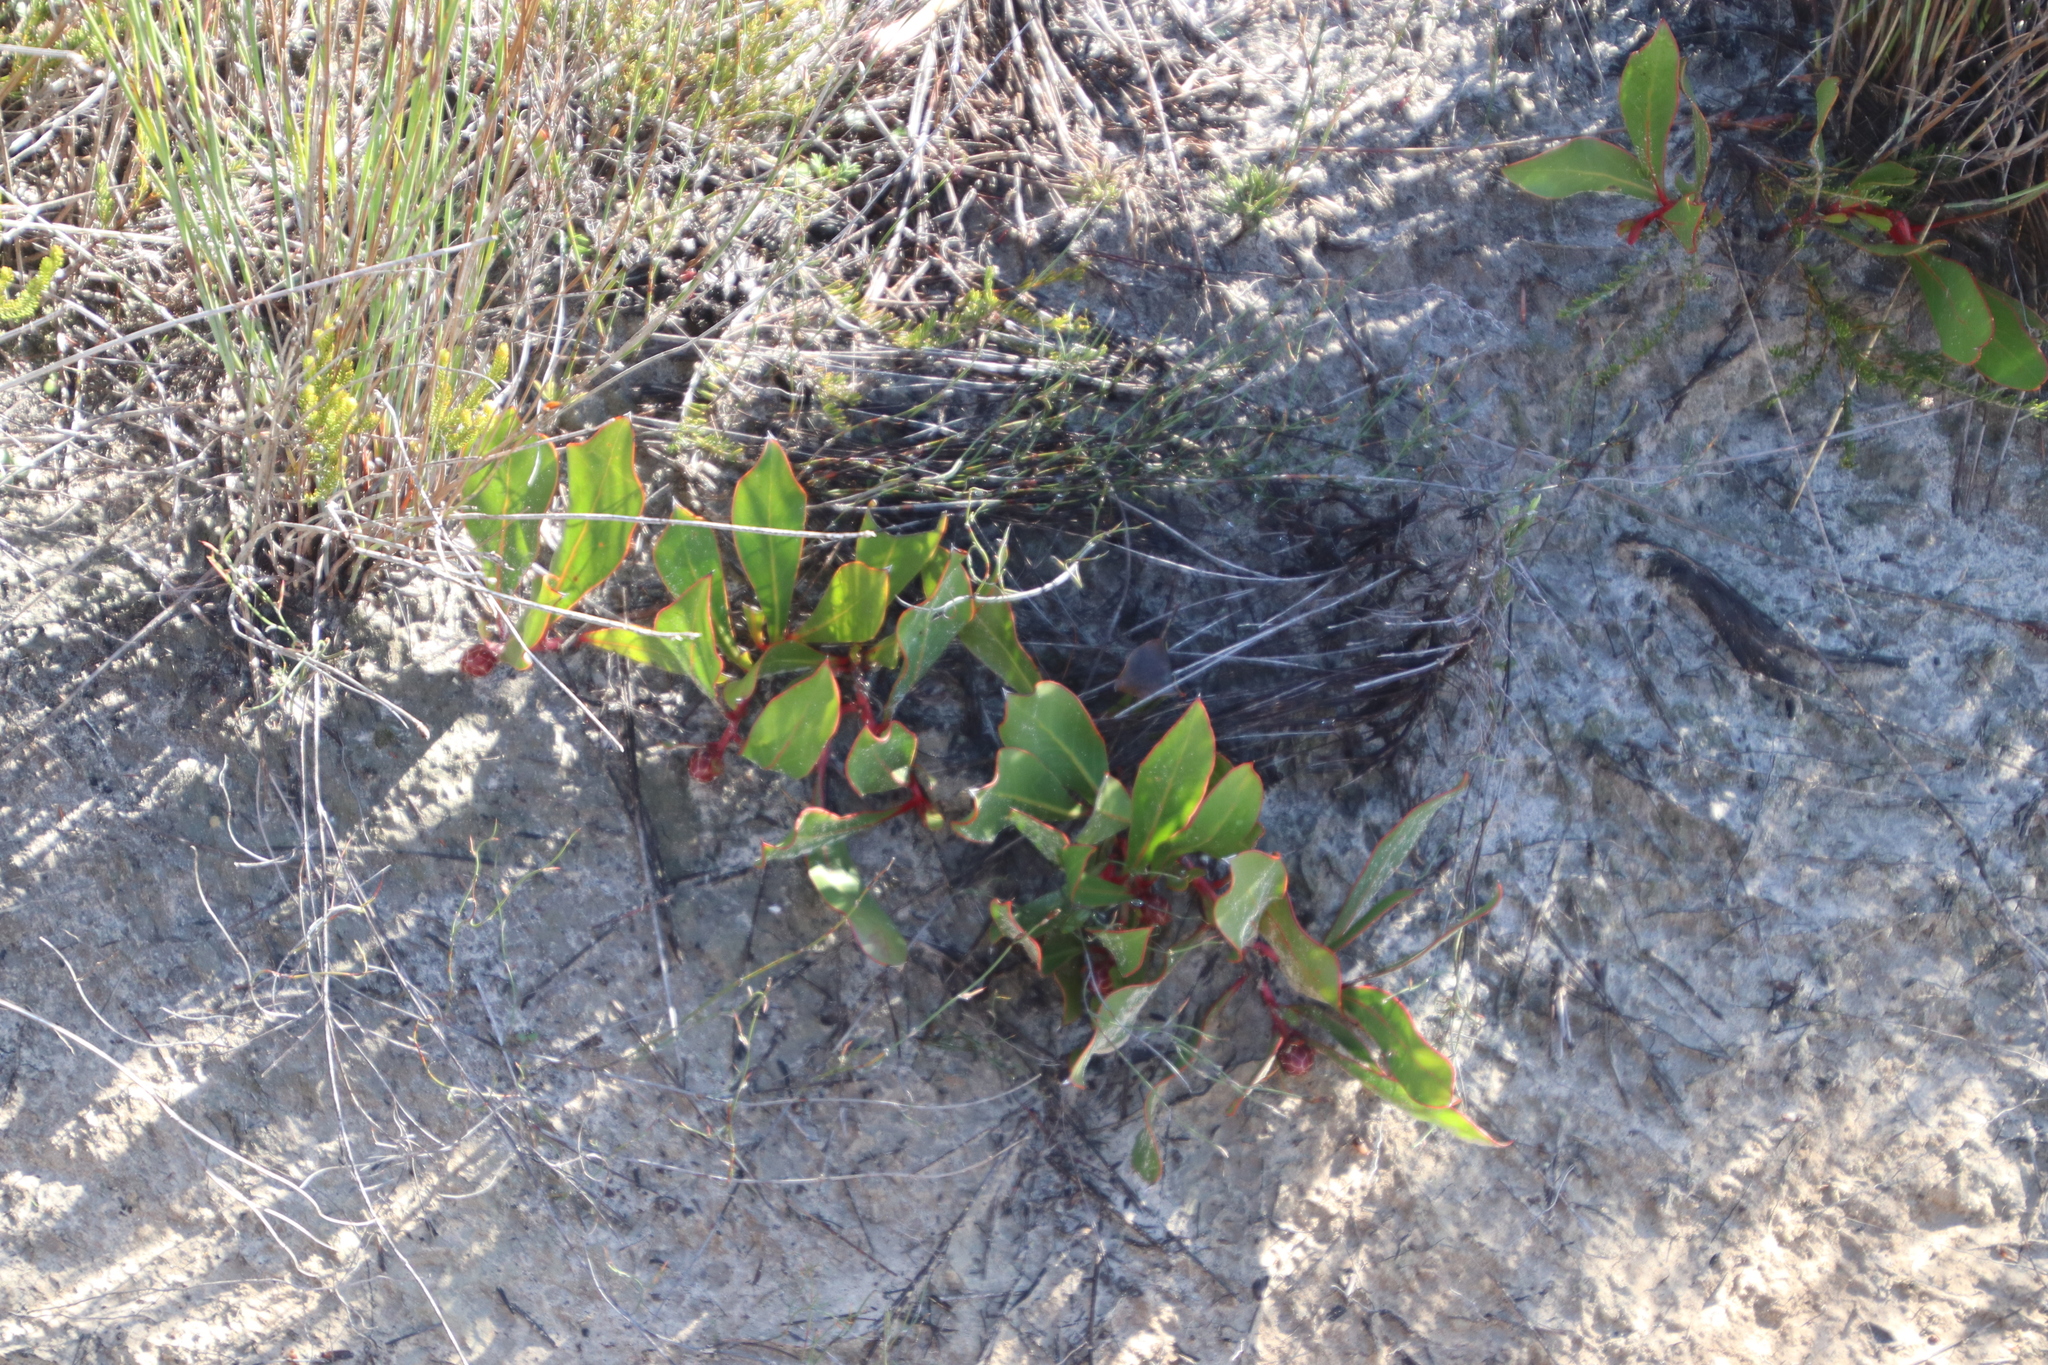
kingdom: Plantae
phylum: Tracheophyta
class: Magnoliopsida
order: Proteales
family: Proteaceae
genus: Protea
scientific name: Protea acaulos
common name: Common ground sugarbush
